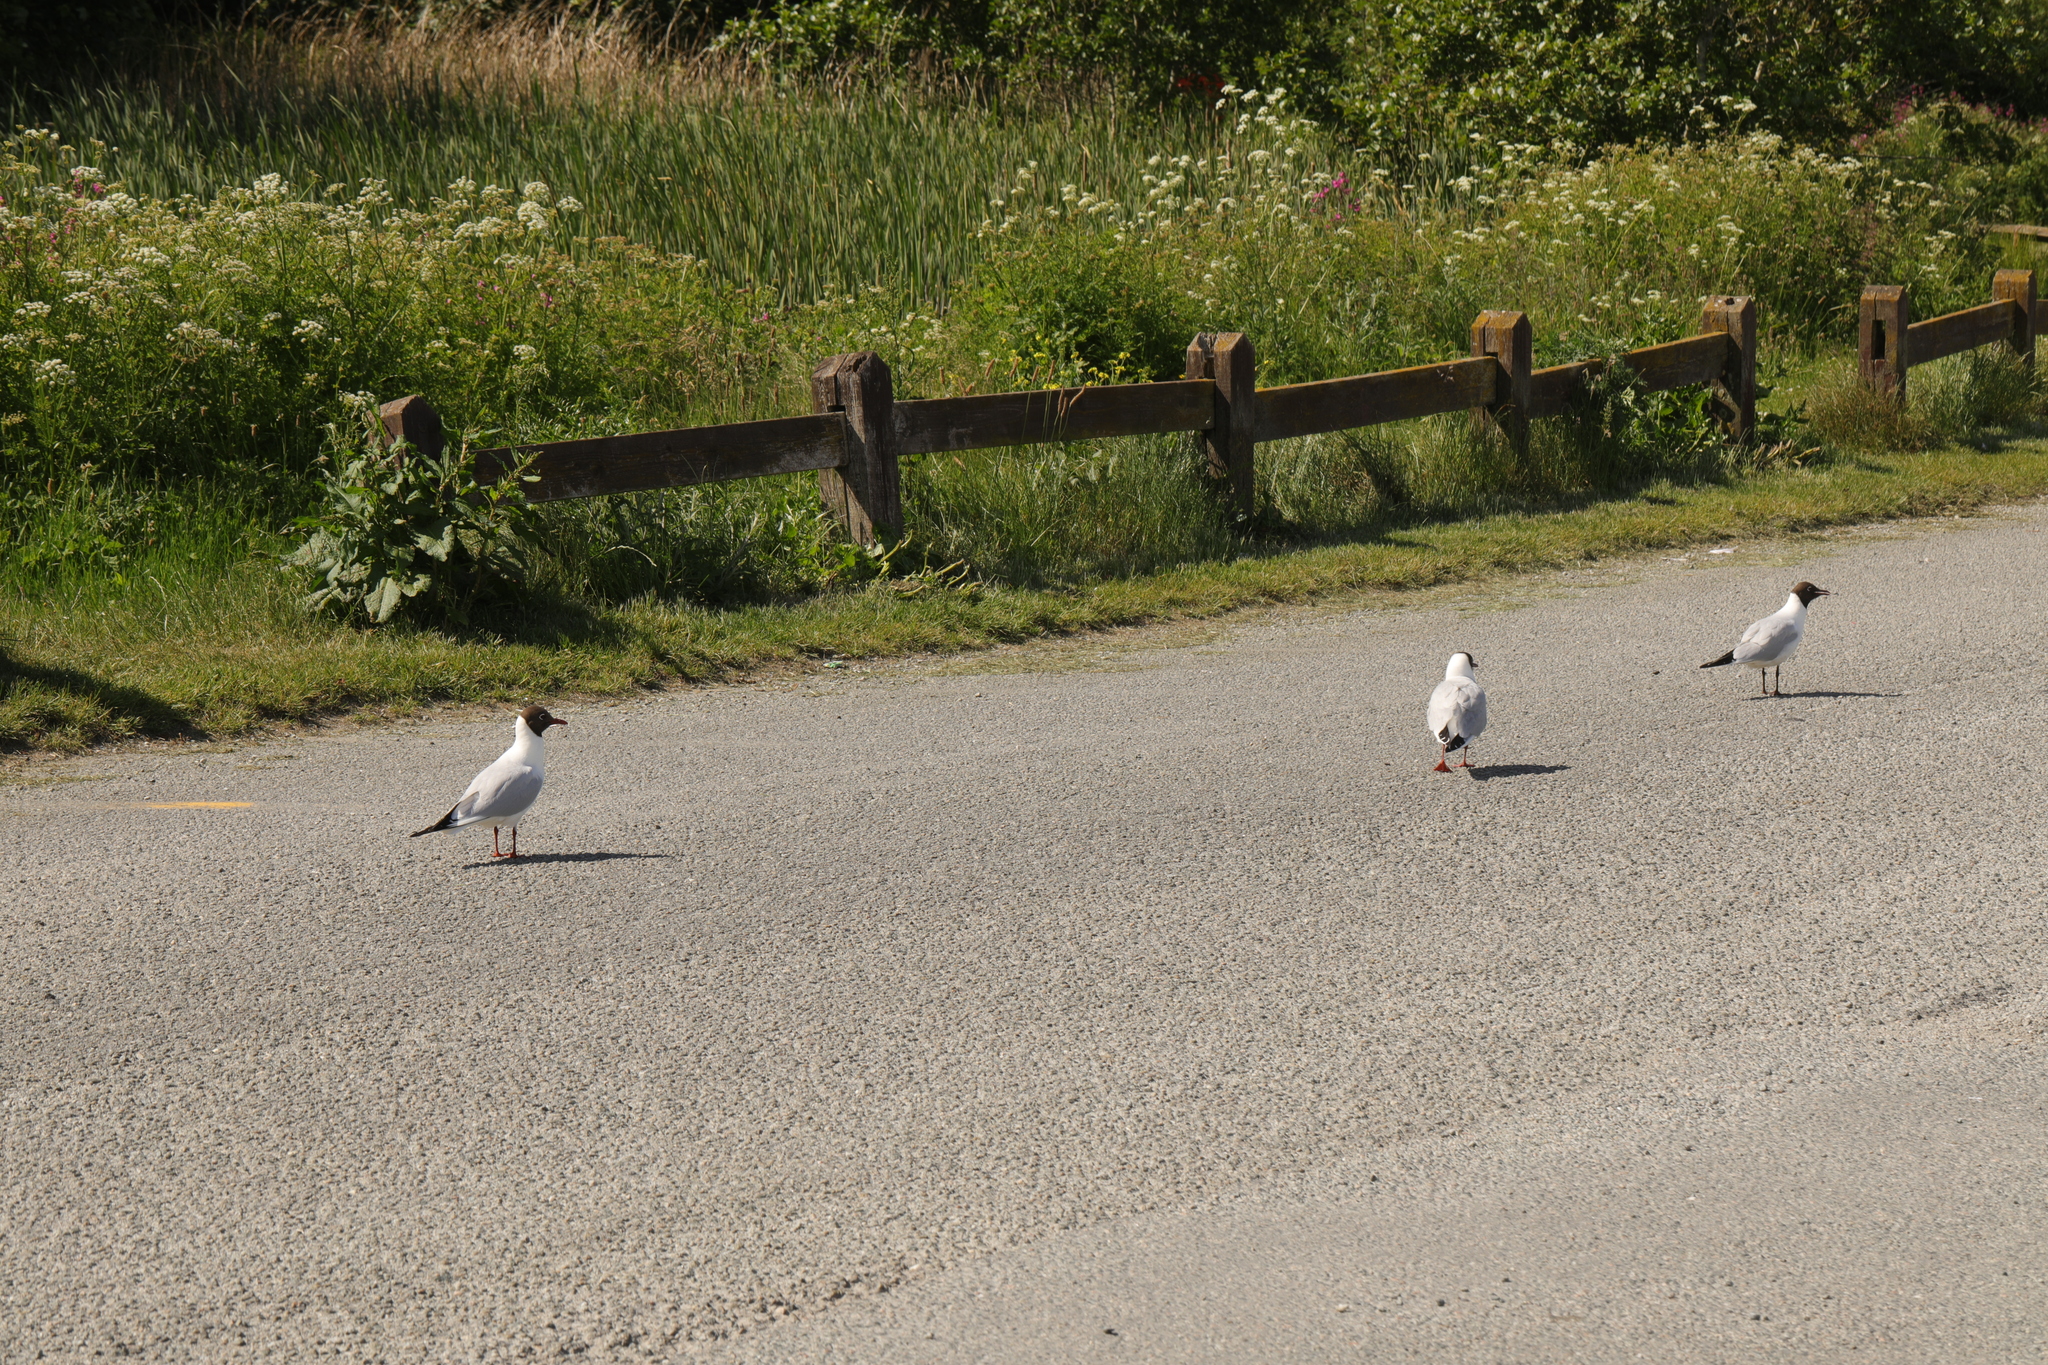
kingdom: Animalia
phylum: Chordata
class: Aves
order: Charadriiformes
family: Laridae
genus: Chroicocephalus
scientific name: Chroicocephalus ridibundus
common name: Black-headed gull
